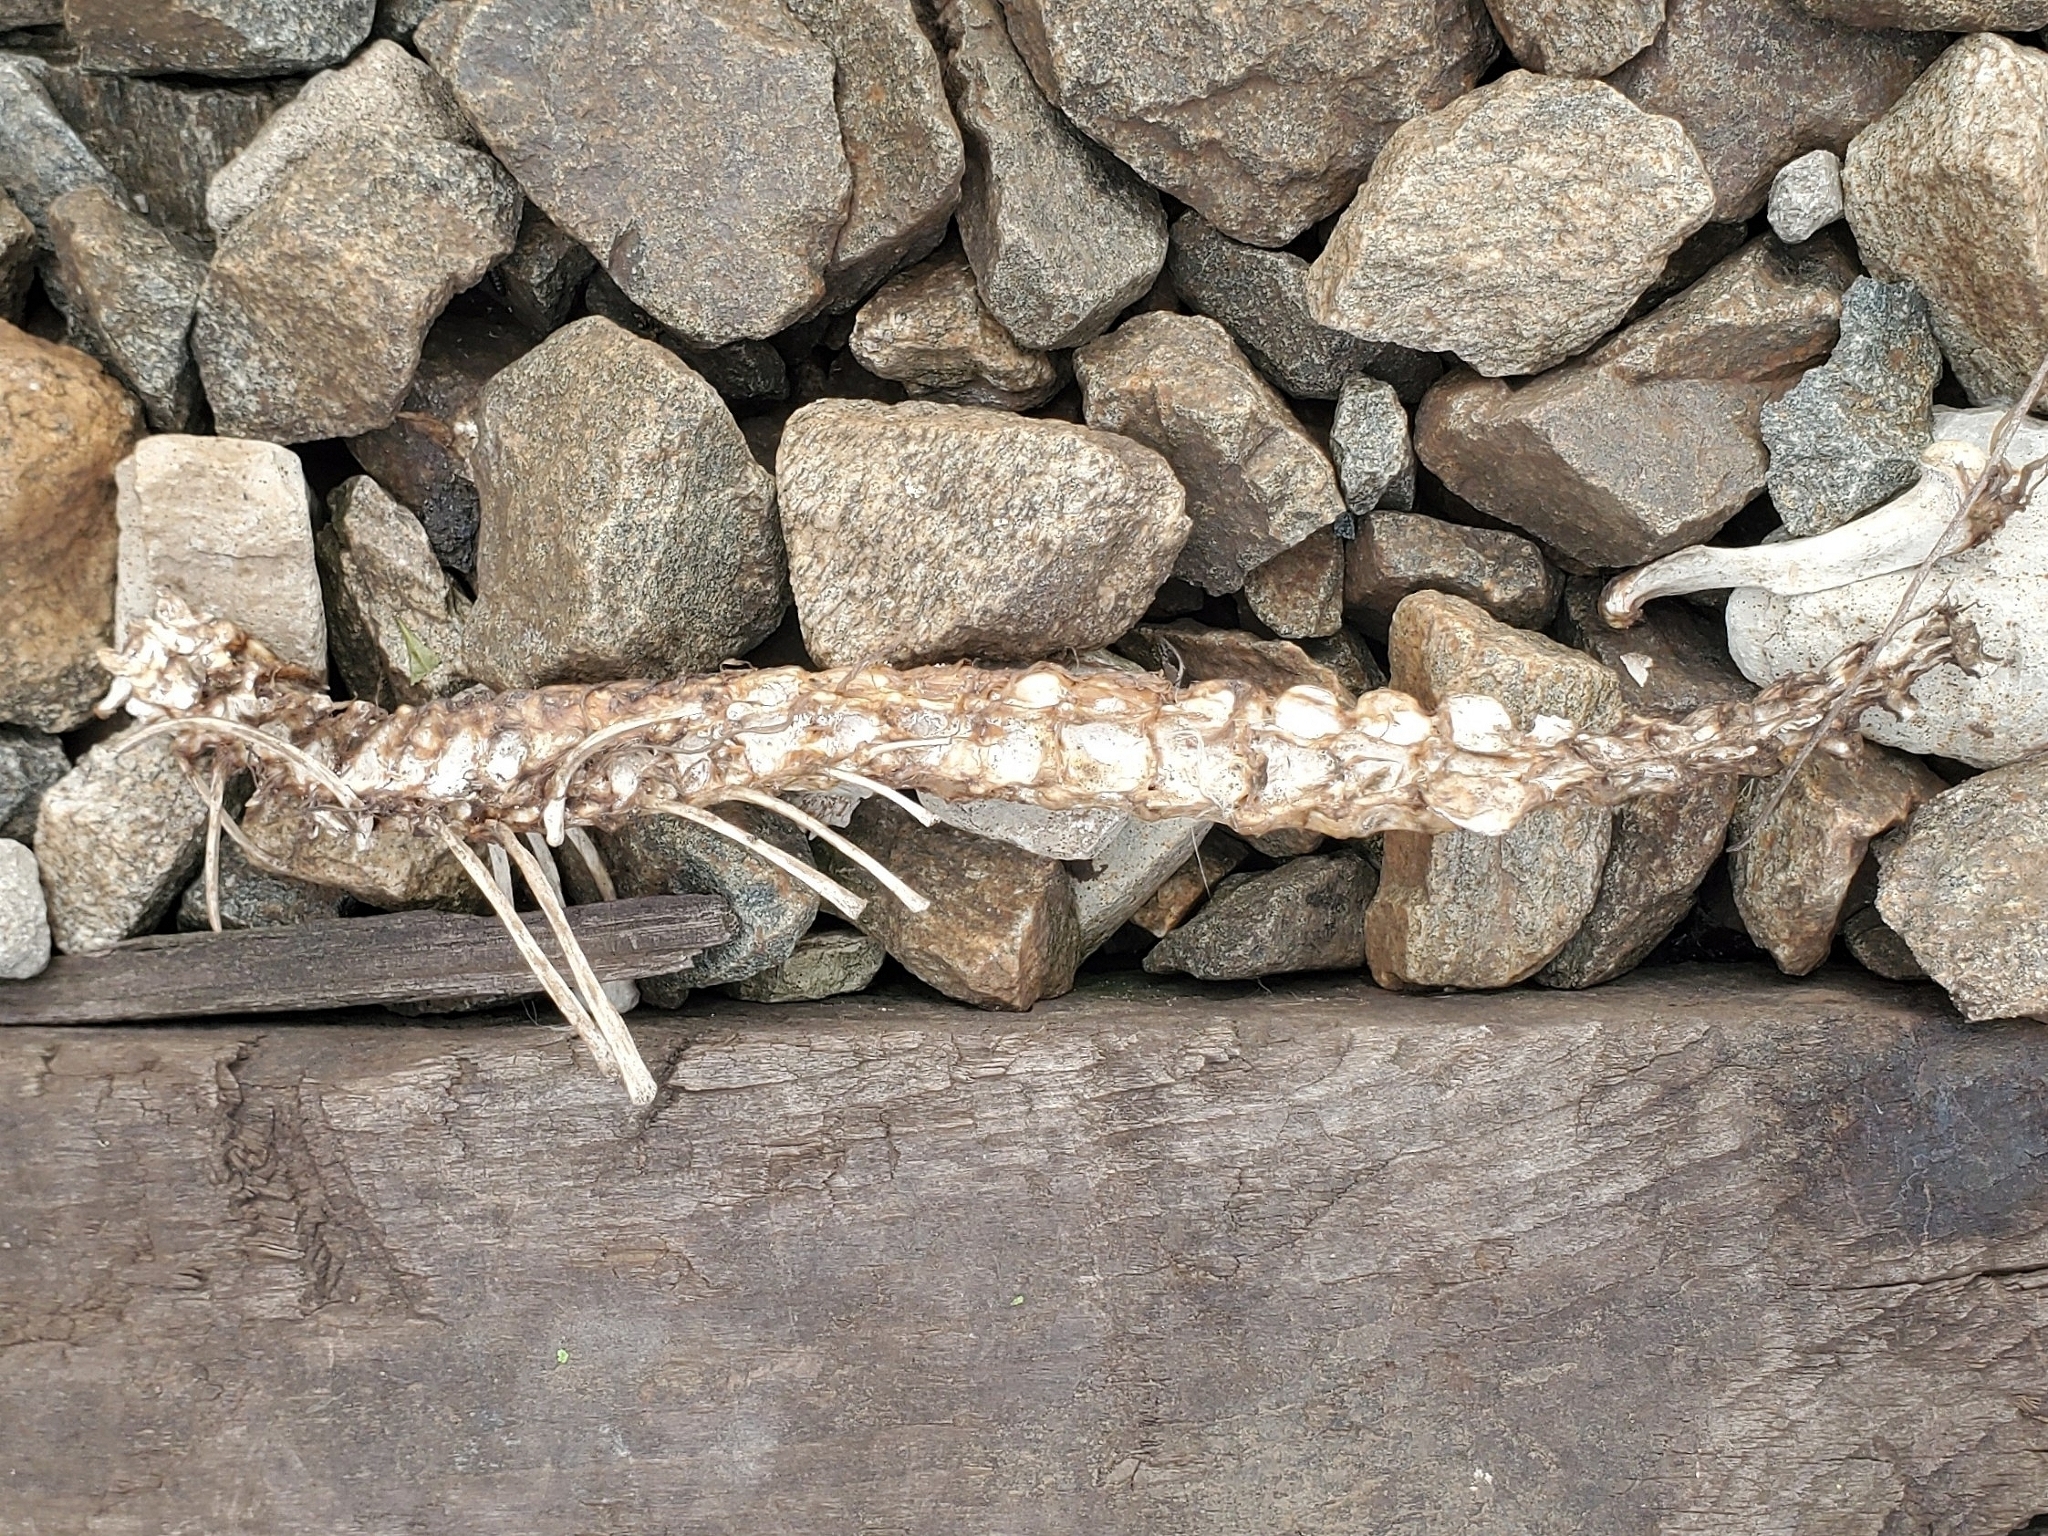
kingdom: Animalia
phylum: Chordata
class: Mammalia
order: Didelphimorphia
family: Didelphidae
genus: Didelphis
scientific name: Didelphis virginiana
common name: Virginia opossum
